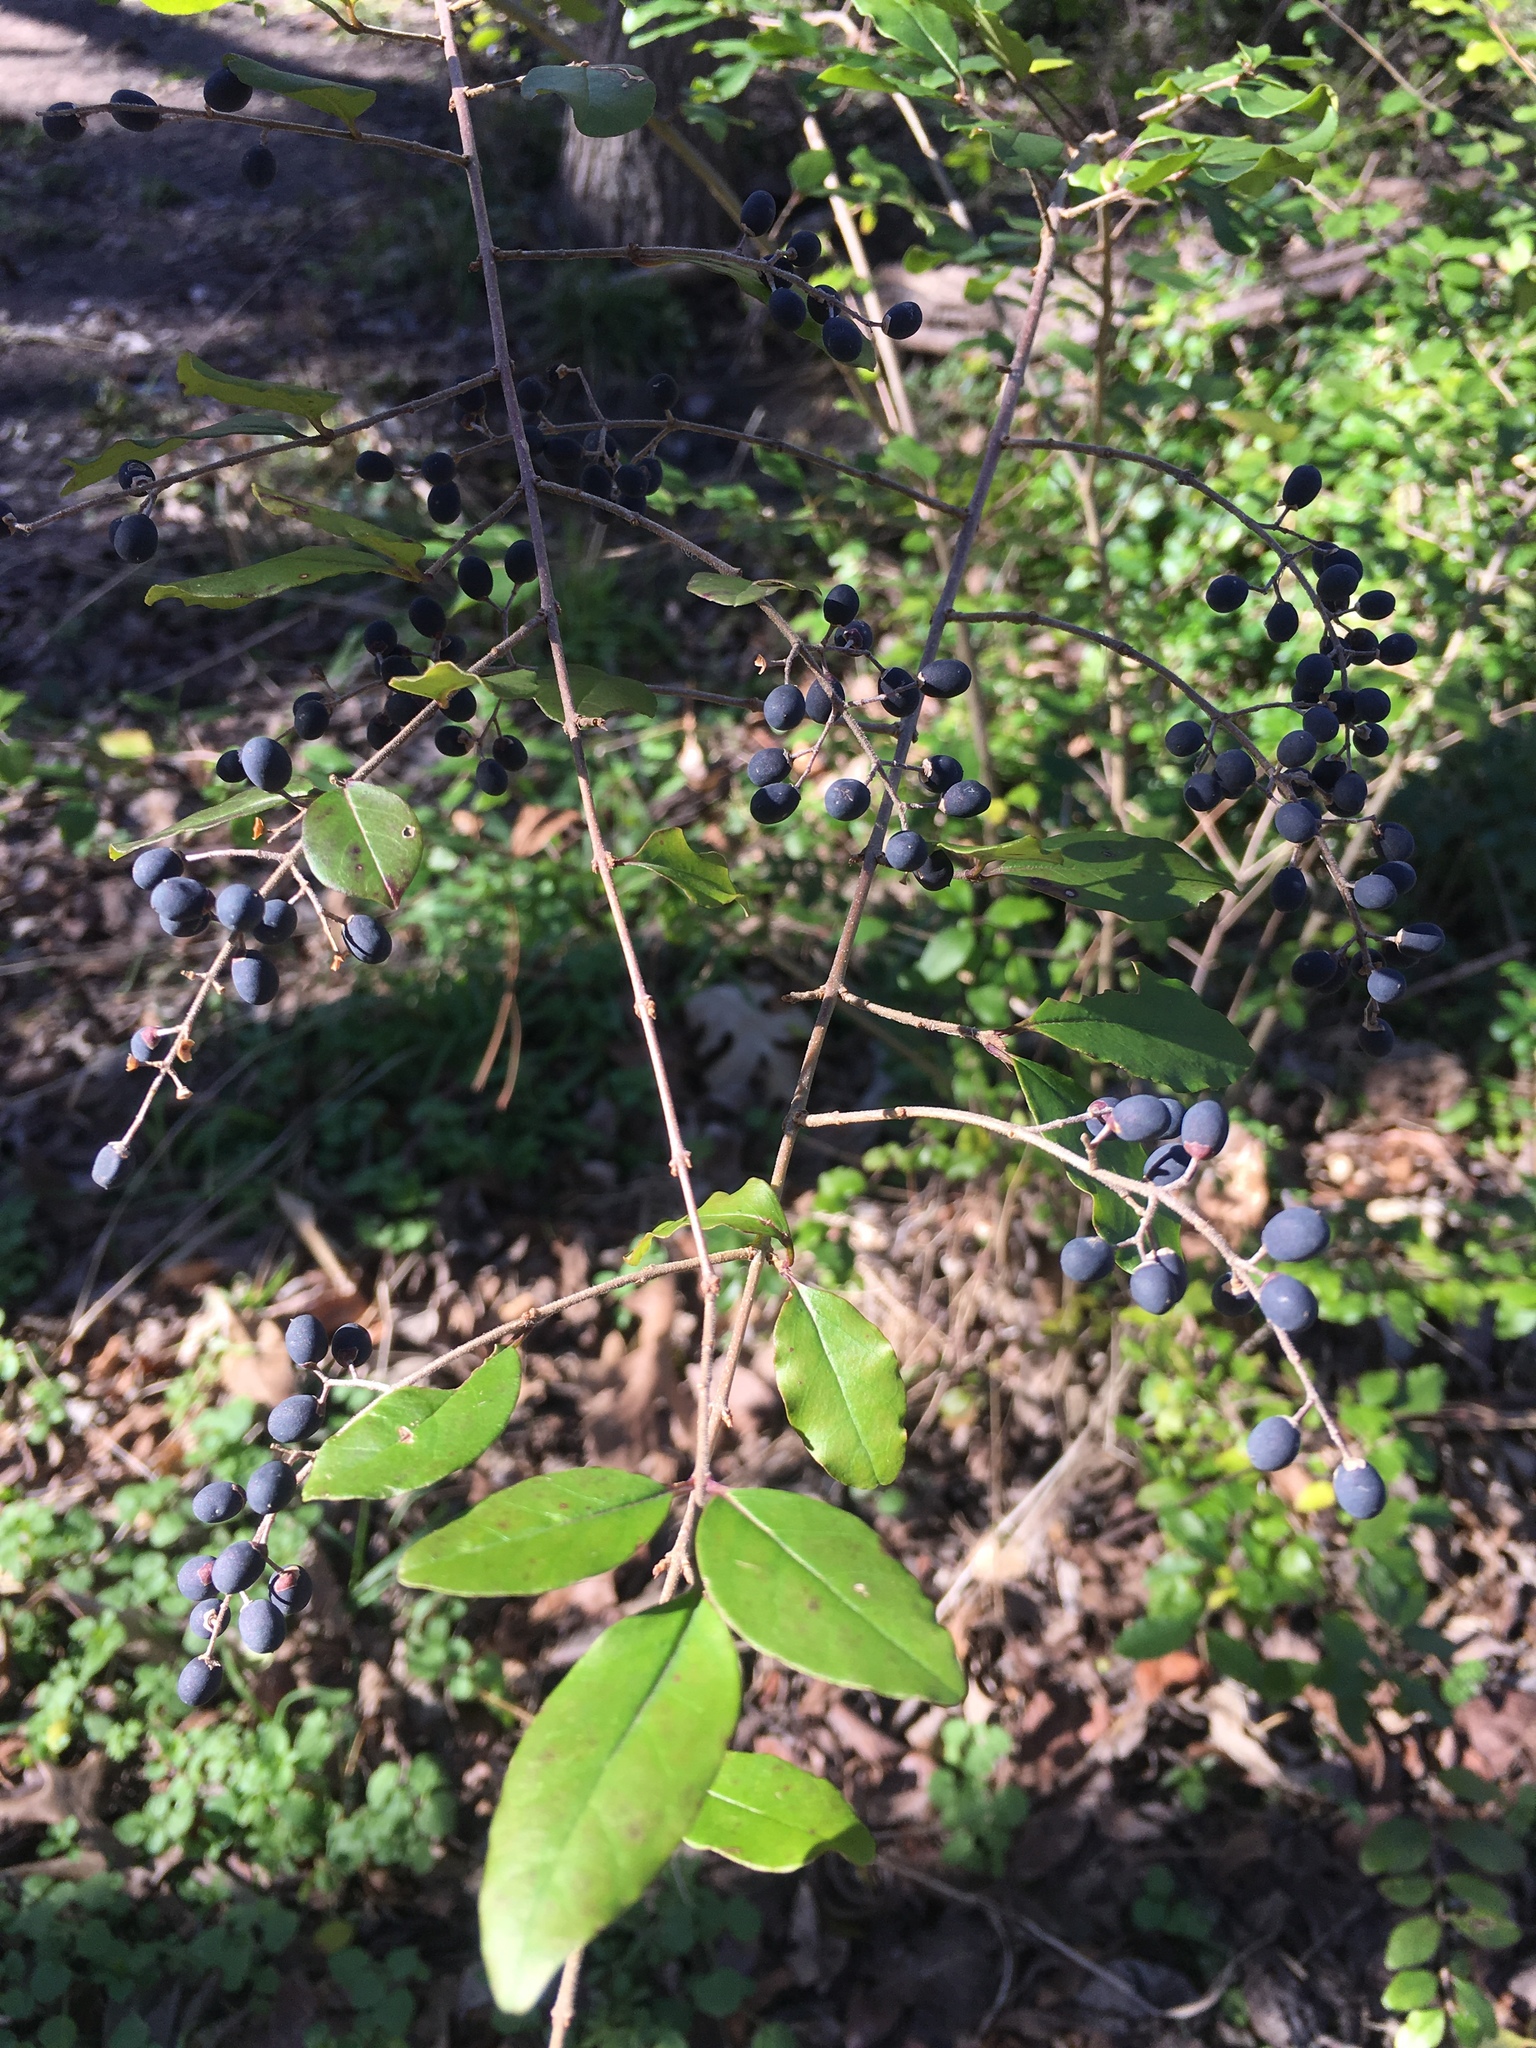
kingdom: Plantae
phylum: Tracheophyta
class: Magnoliopsida
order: Lamiales
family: Oleaceae
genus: Ligustrum
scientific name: Ligustrum sinense
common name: Chinese privet
